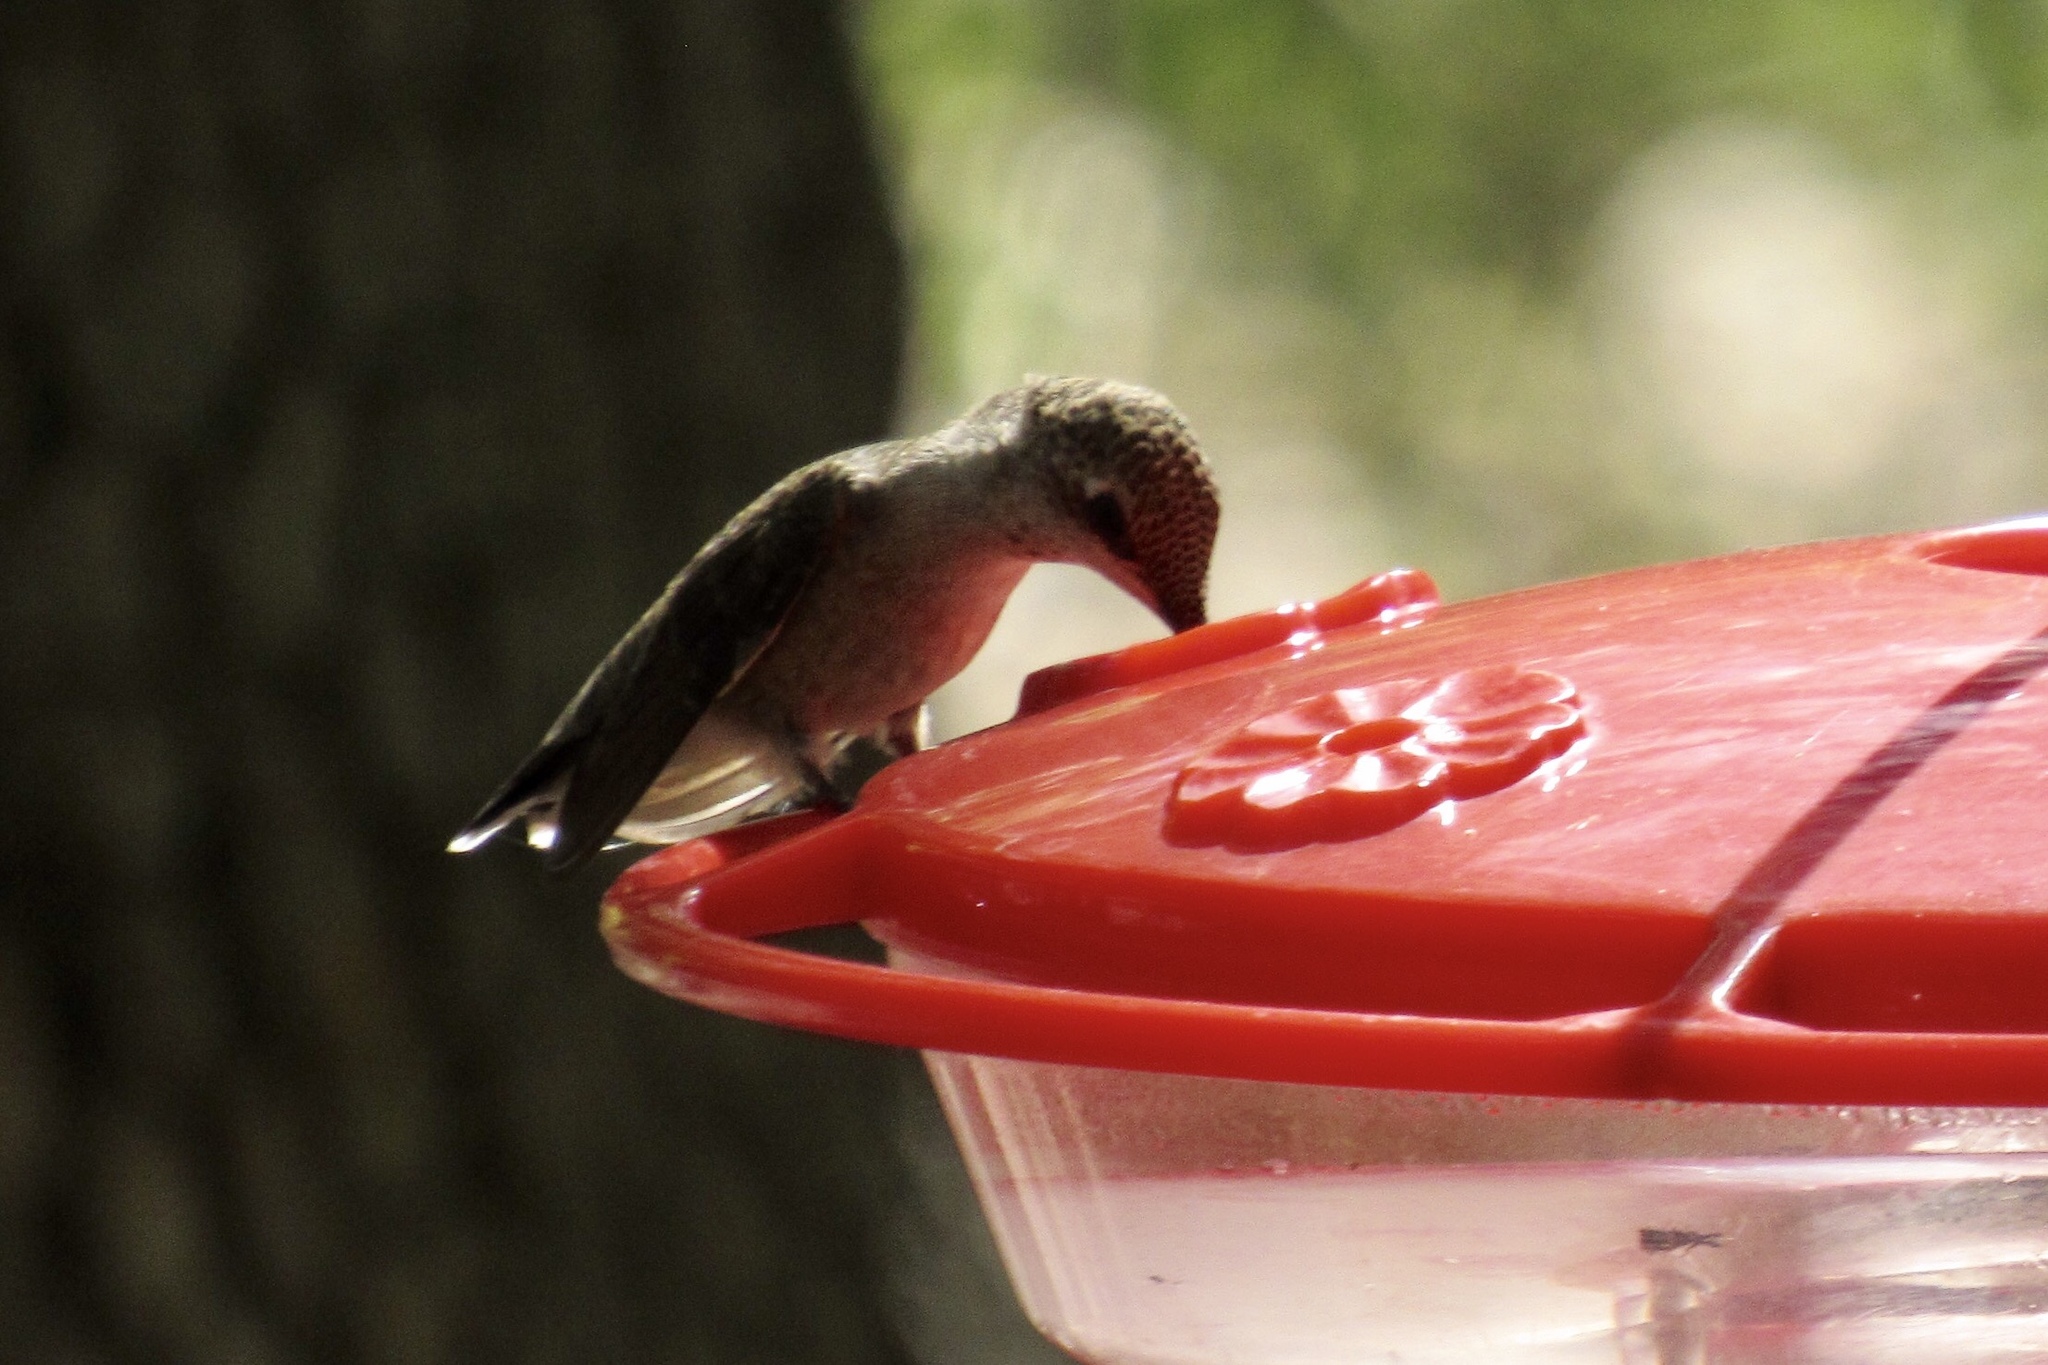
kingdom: Animalia
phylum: Chordata
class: Aves
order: Apodiformes
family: Trochilidae
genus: Archilochus
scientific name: Archilochus alexandri
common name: Black-chinned hummingbird
